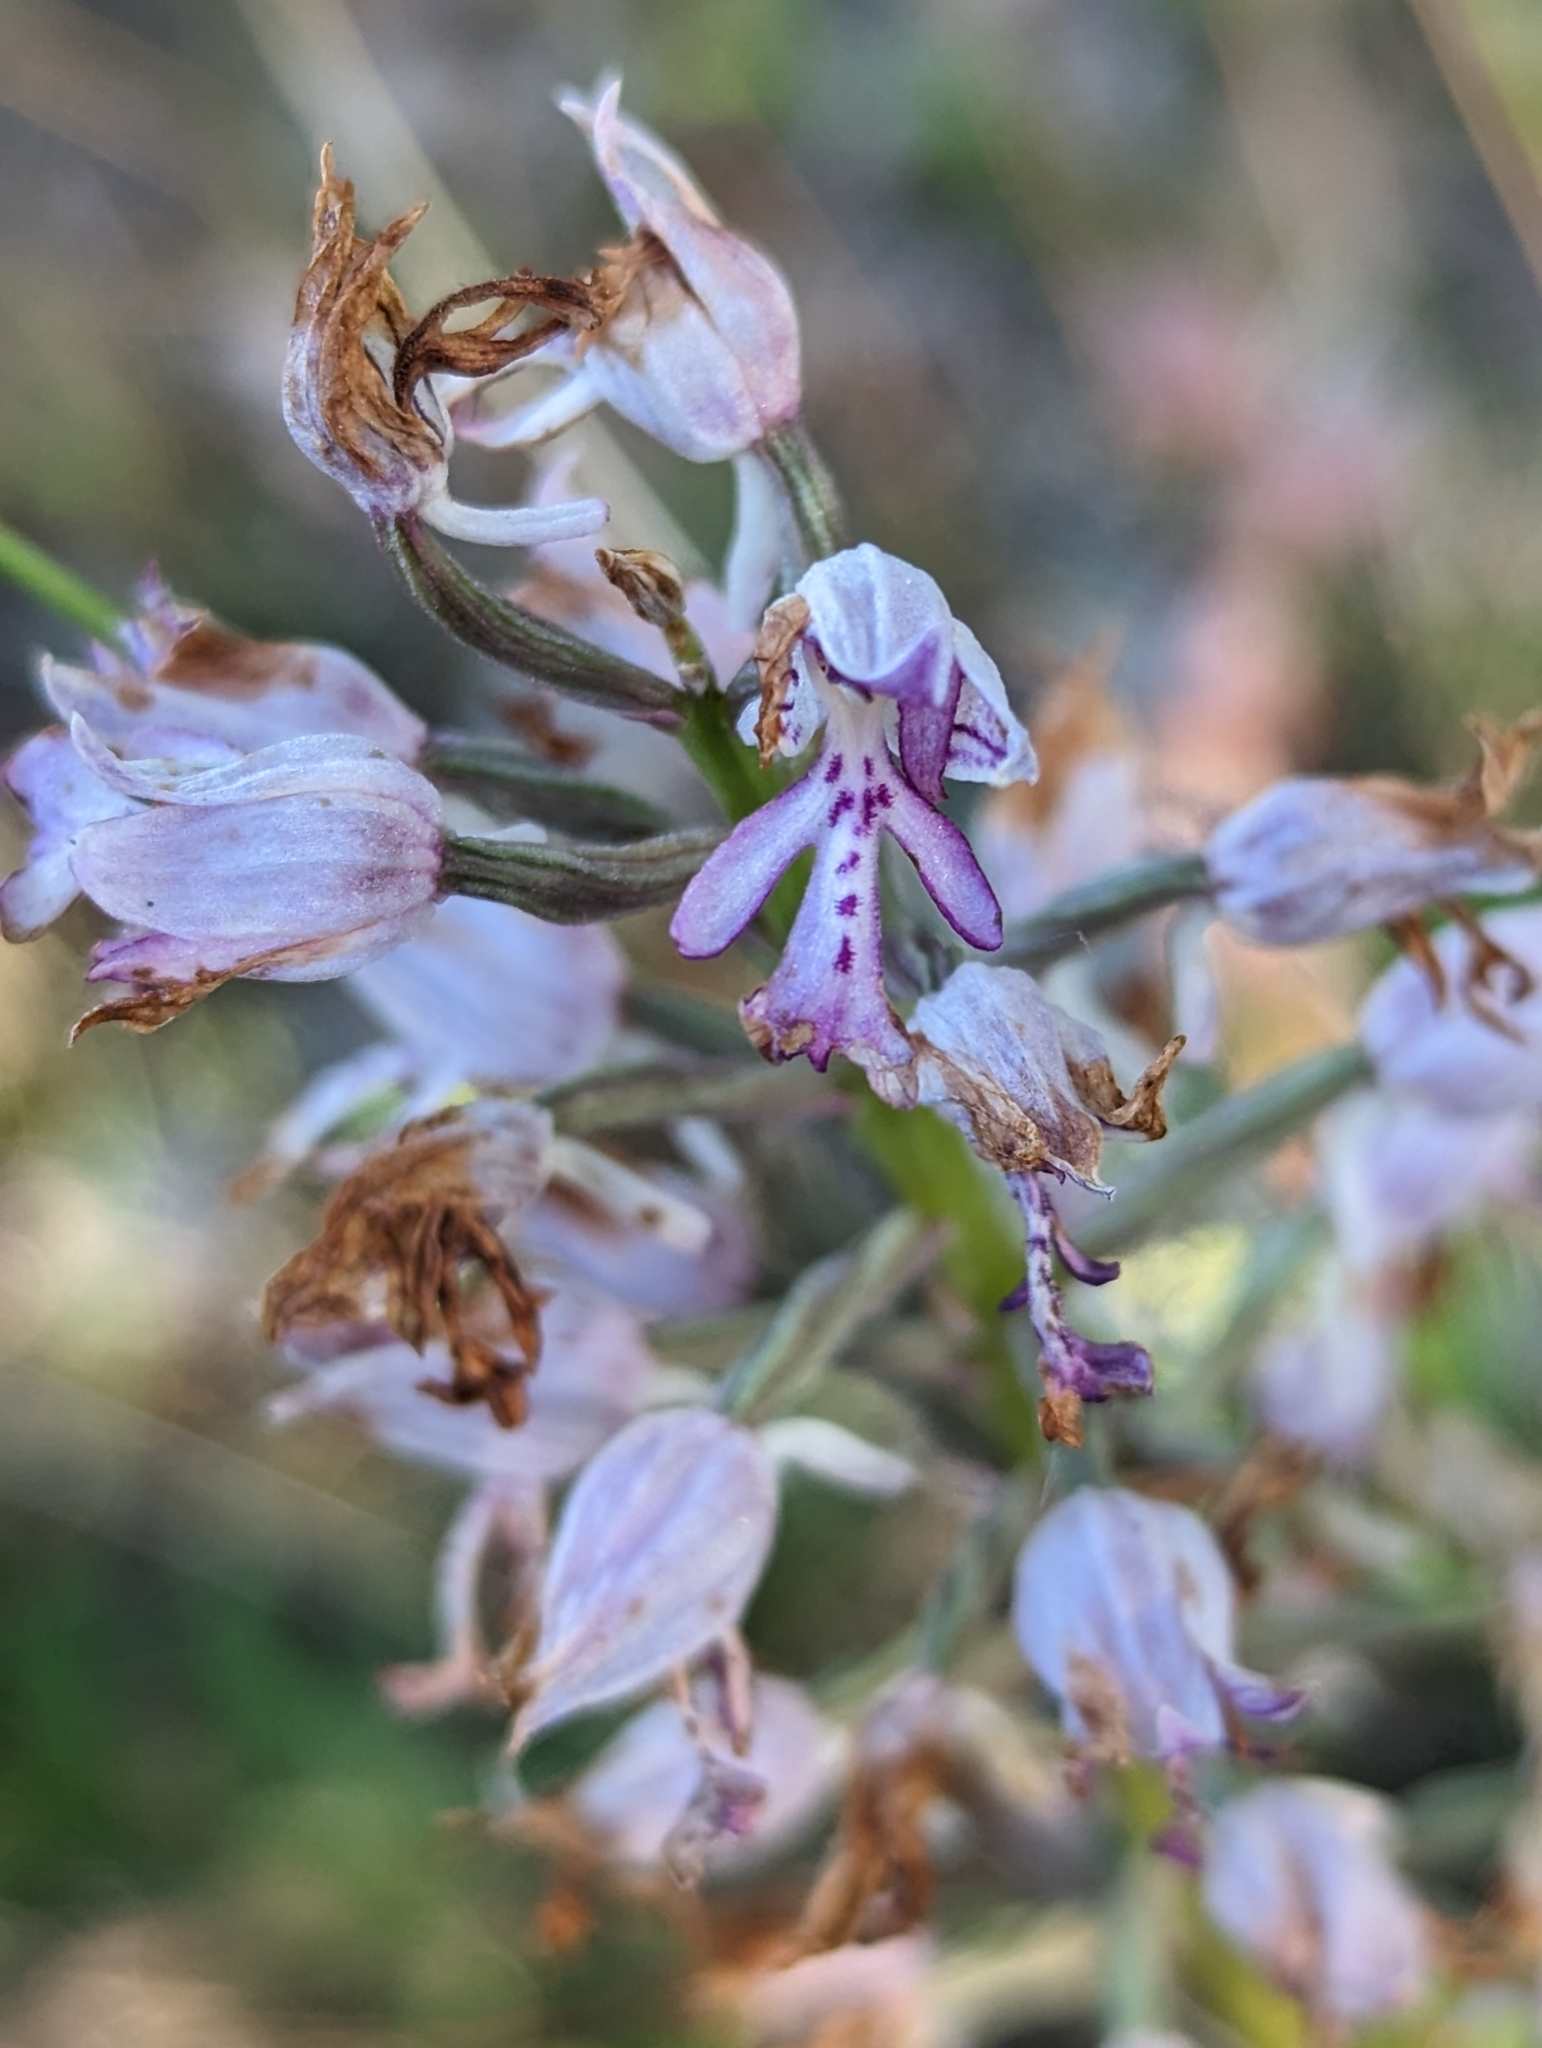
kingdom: Plantae
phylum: Tracheophyta
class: Liliopsida
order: Asparagales
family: Orchidaceae
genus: Orchis
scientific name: Orchis militaris
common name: Military orchid
